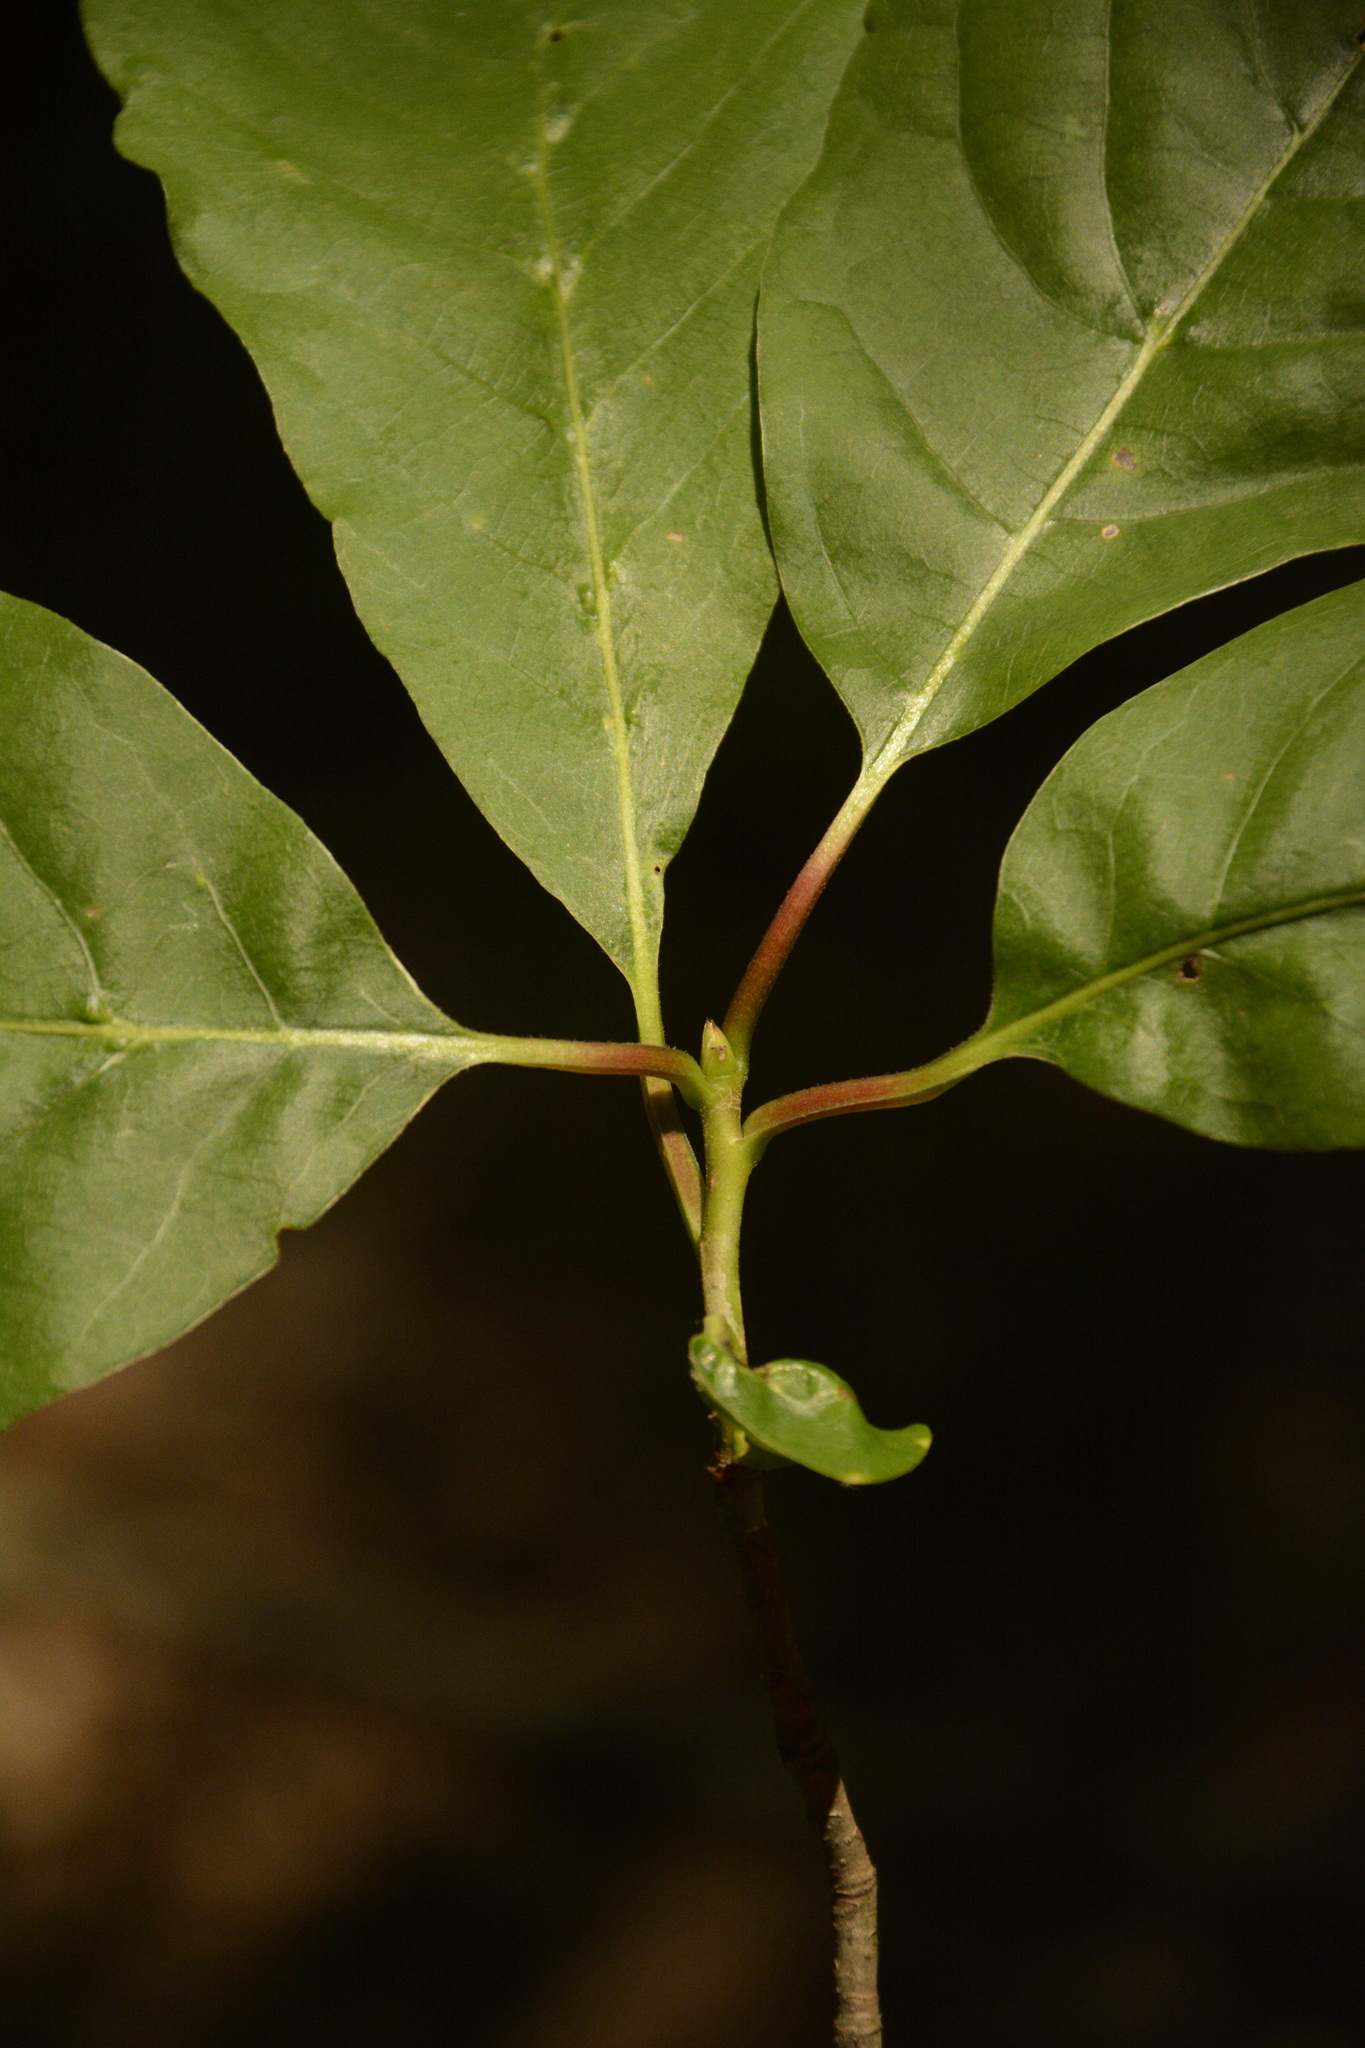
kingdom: Plantae
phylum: Tracheophyta
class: Magnoliopsida
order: Cornales
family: Nyssaceae
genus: Nyssa
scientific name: Nyssa sylvatica
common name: Black tupelo
